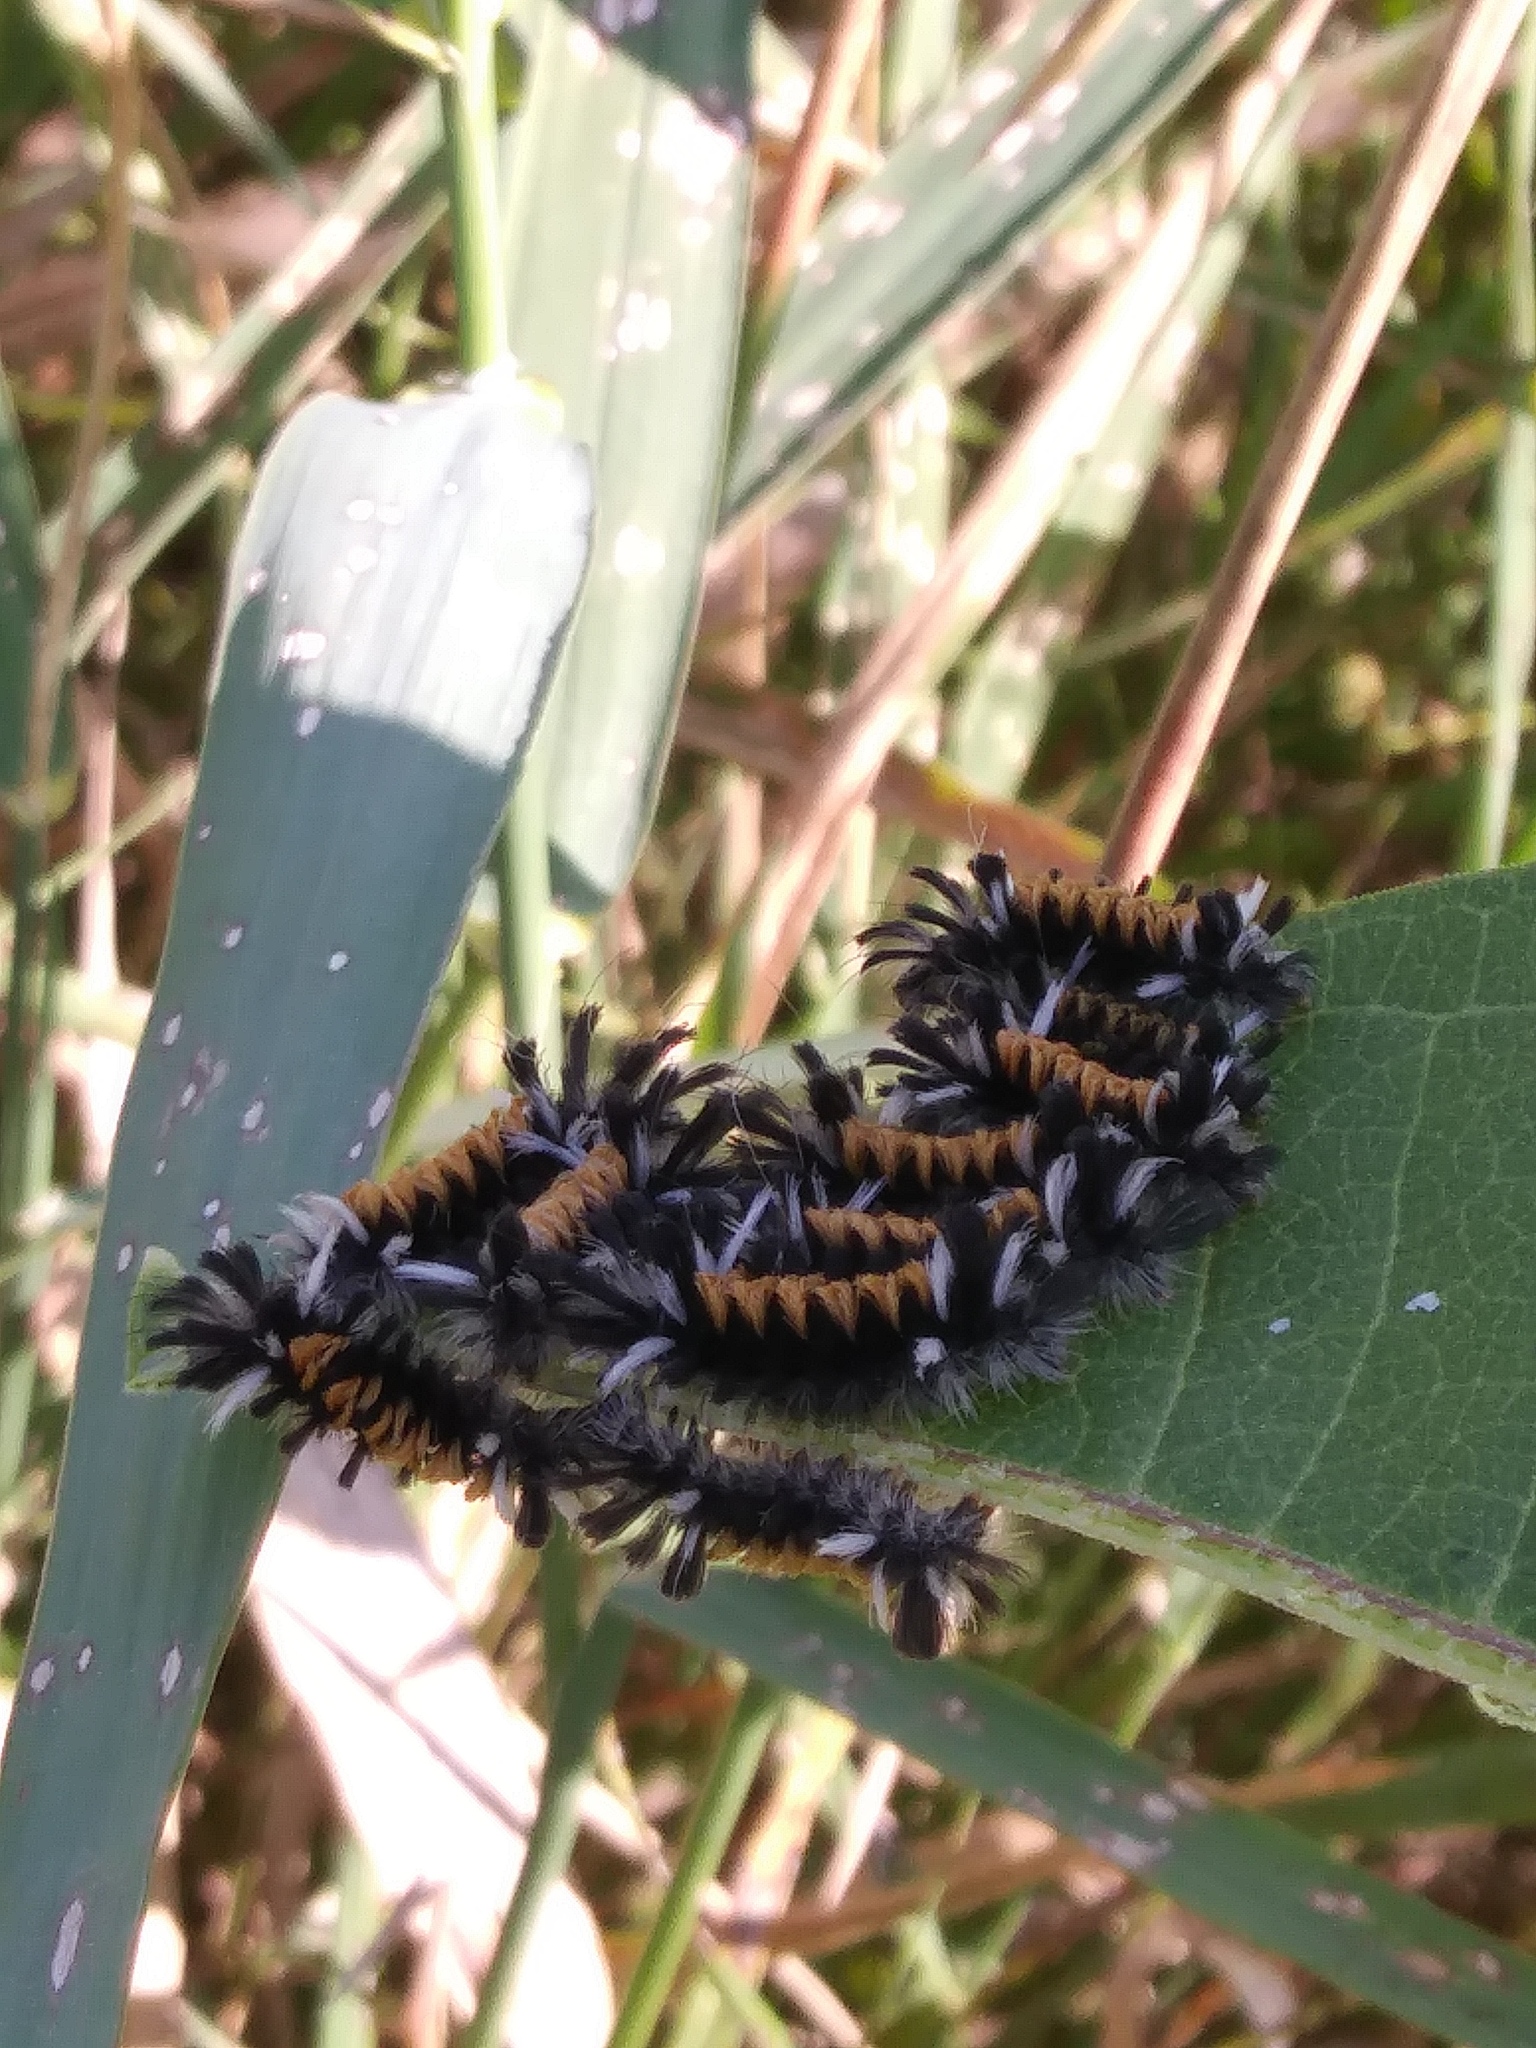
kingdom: Animalia
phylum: Arthropoda
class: Insecta
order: Lepidoptera
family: Erebidae
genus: Euchaetes
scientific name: Euchaetes egle
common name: Milkweed tussock moth
